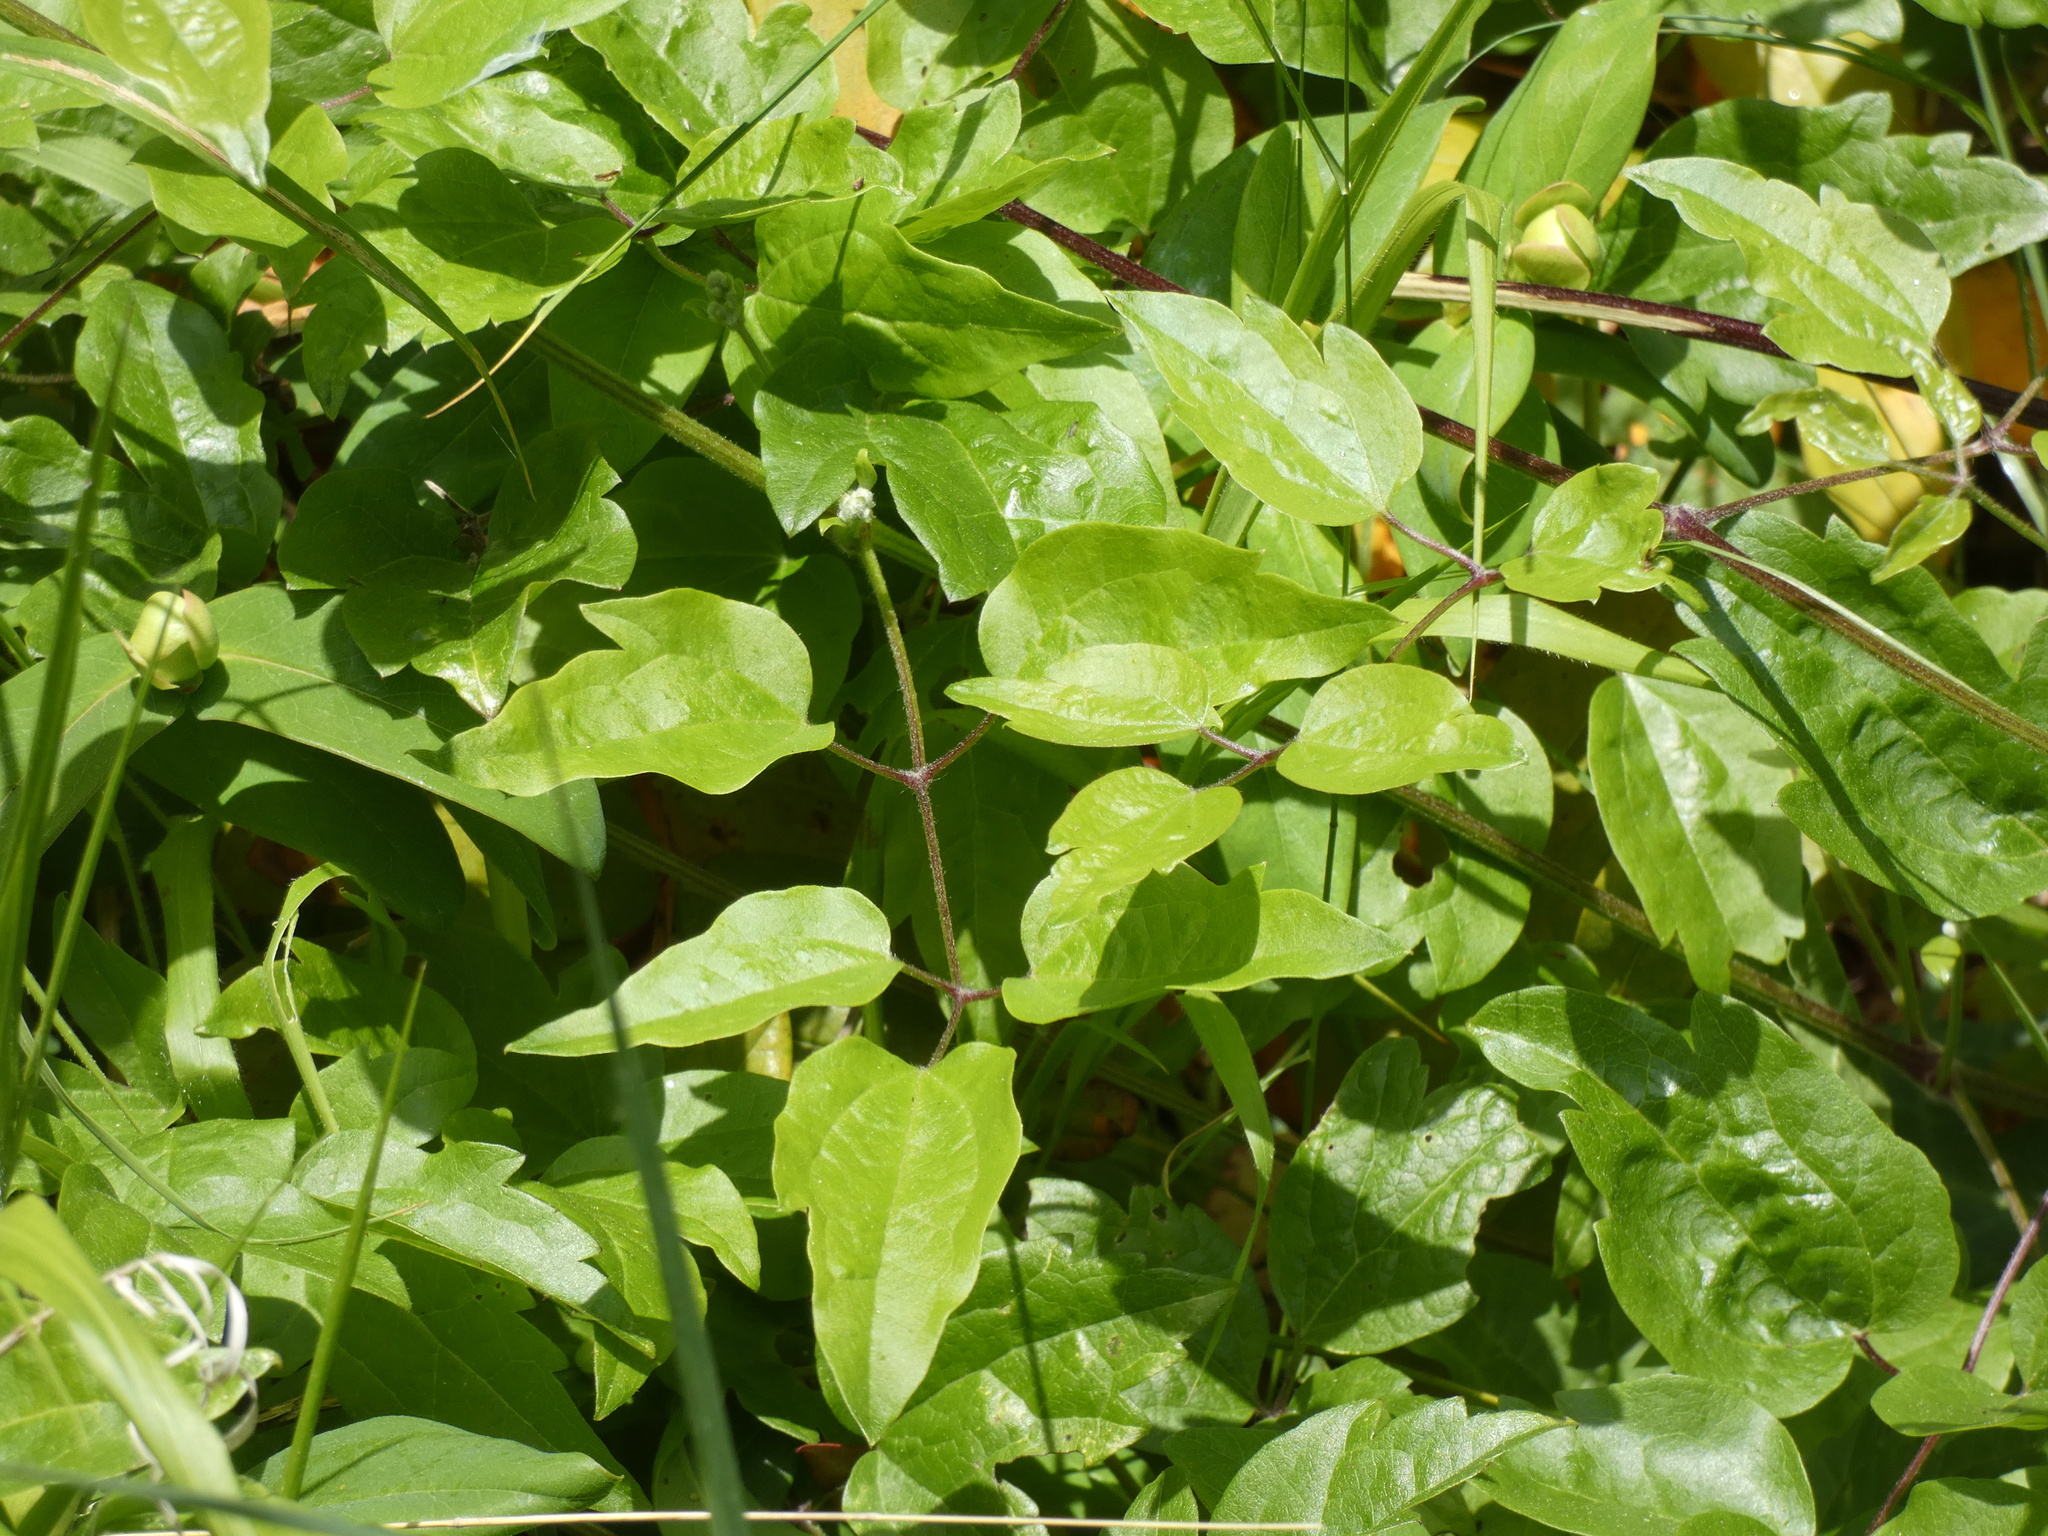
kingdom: Plantae
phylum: Tracheophyta
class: Magnoliopsida
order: Ranunculales
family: Ranunculaceae
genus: Clematis
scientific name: Clematis vitalba
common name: Evergreen clematis
